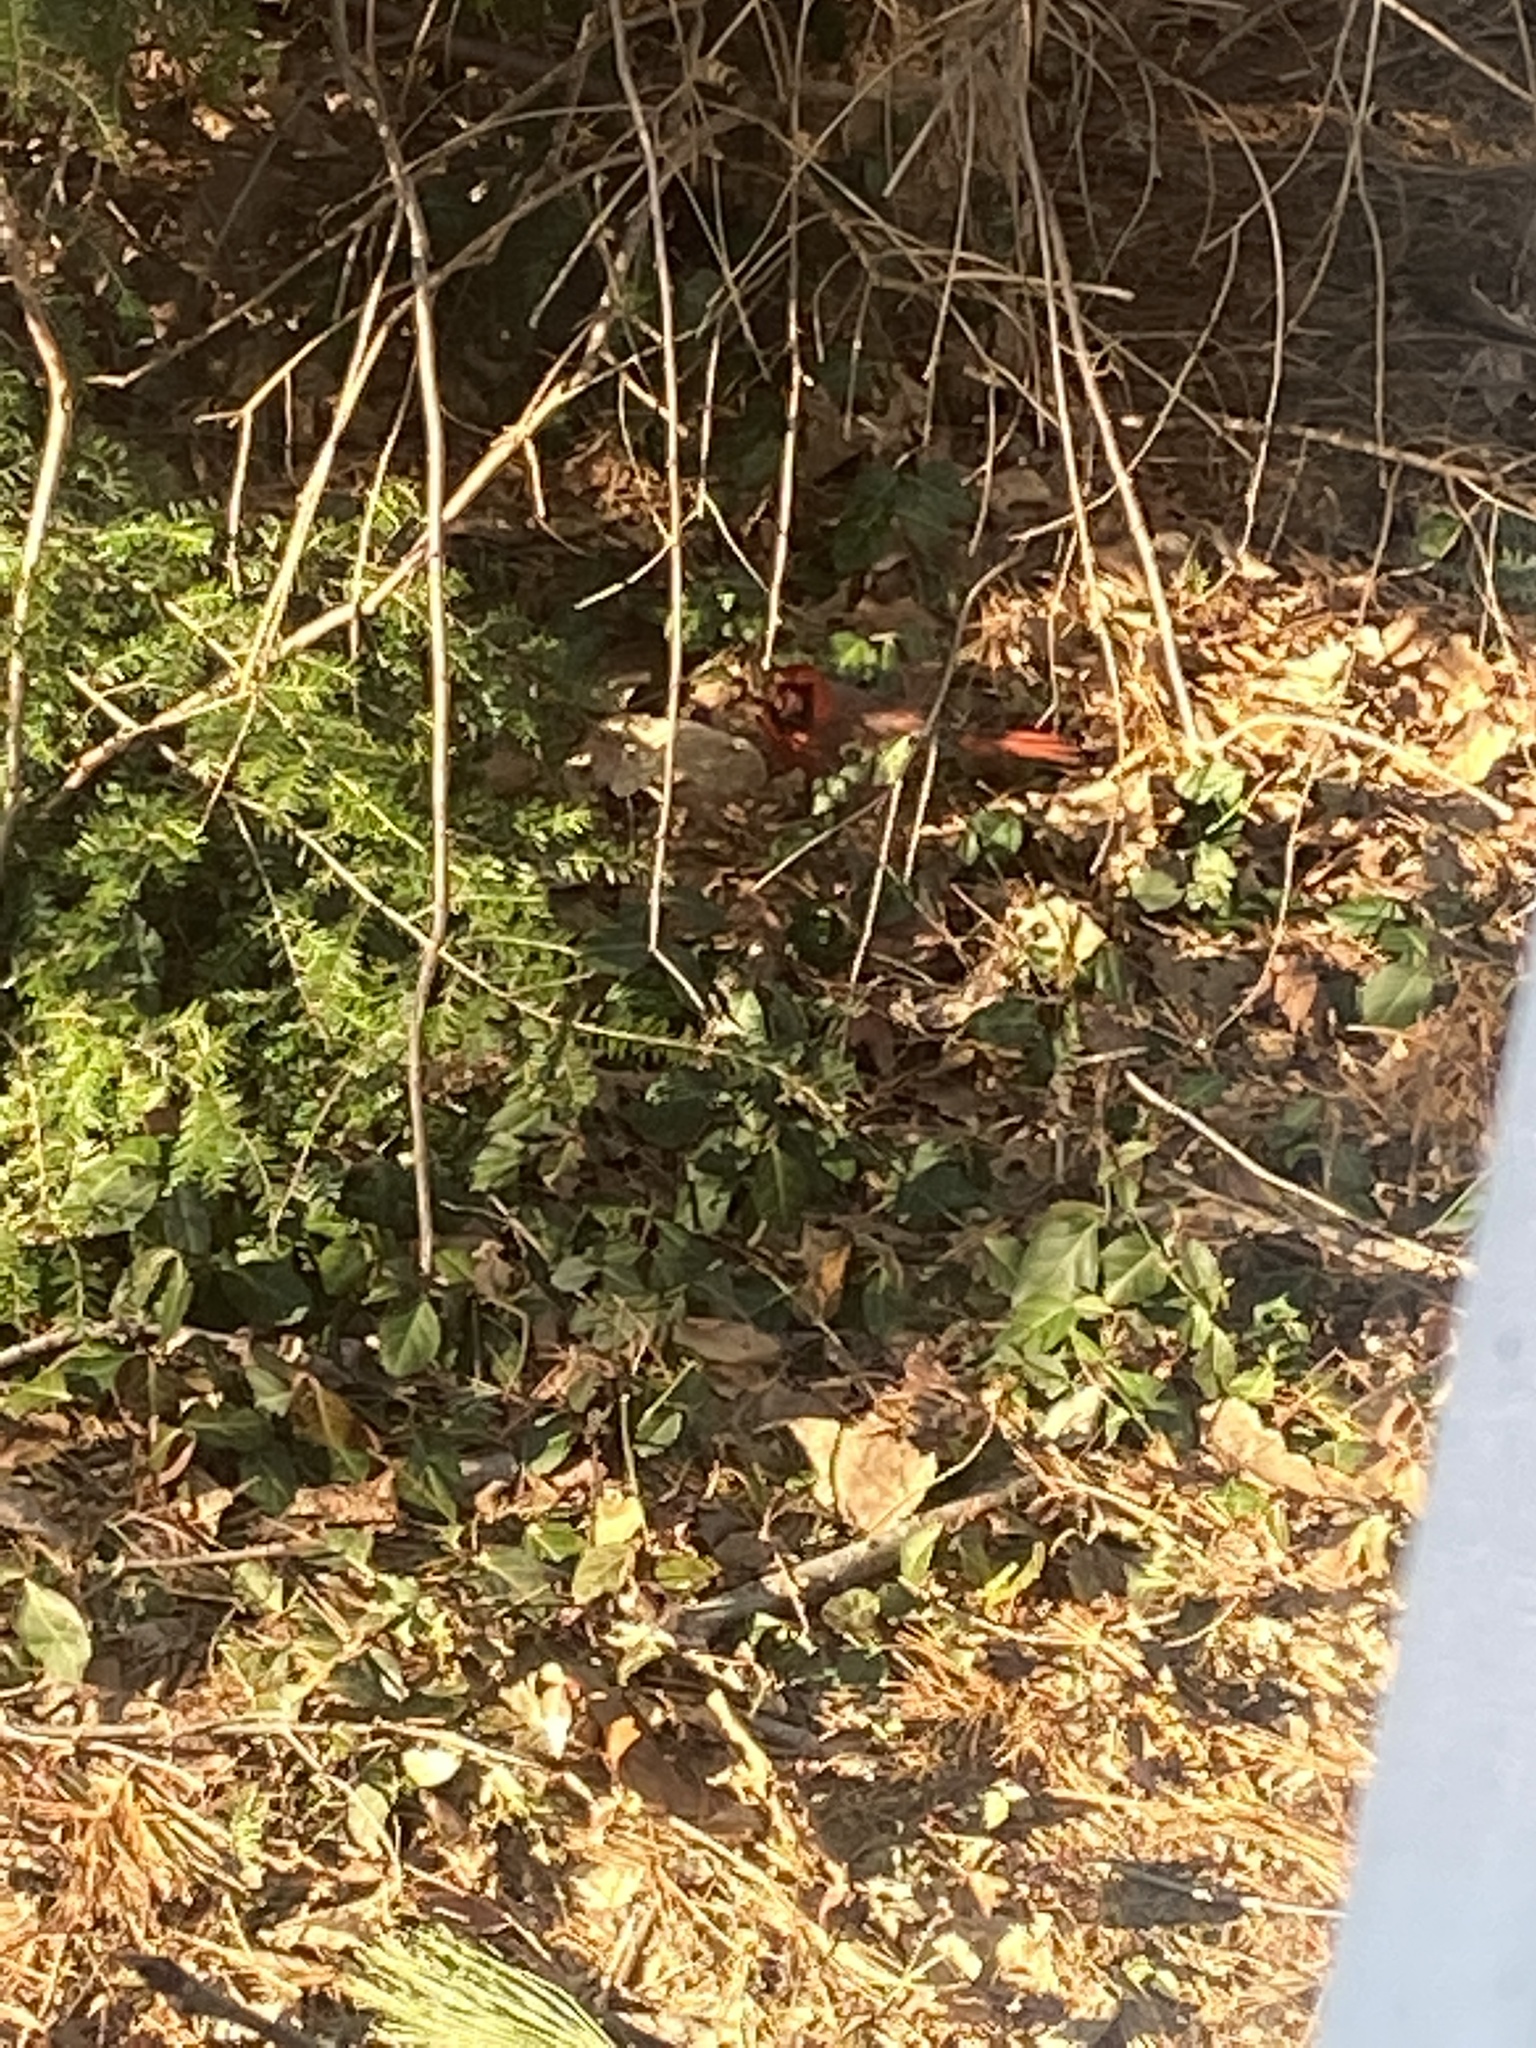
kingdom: Animalia
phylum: Chordata
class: Aves
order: Passeriformes
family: Cardinalidae
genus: Cardinalis
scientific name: Cardinalis cardinalis
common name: Northern cardinal
